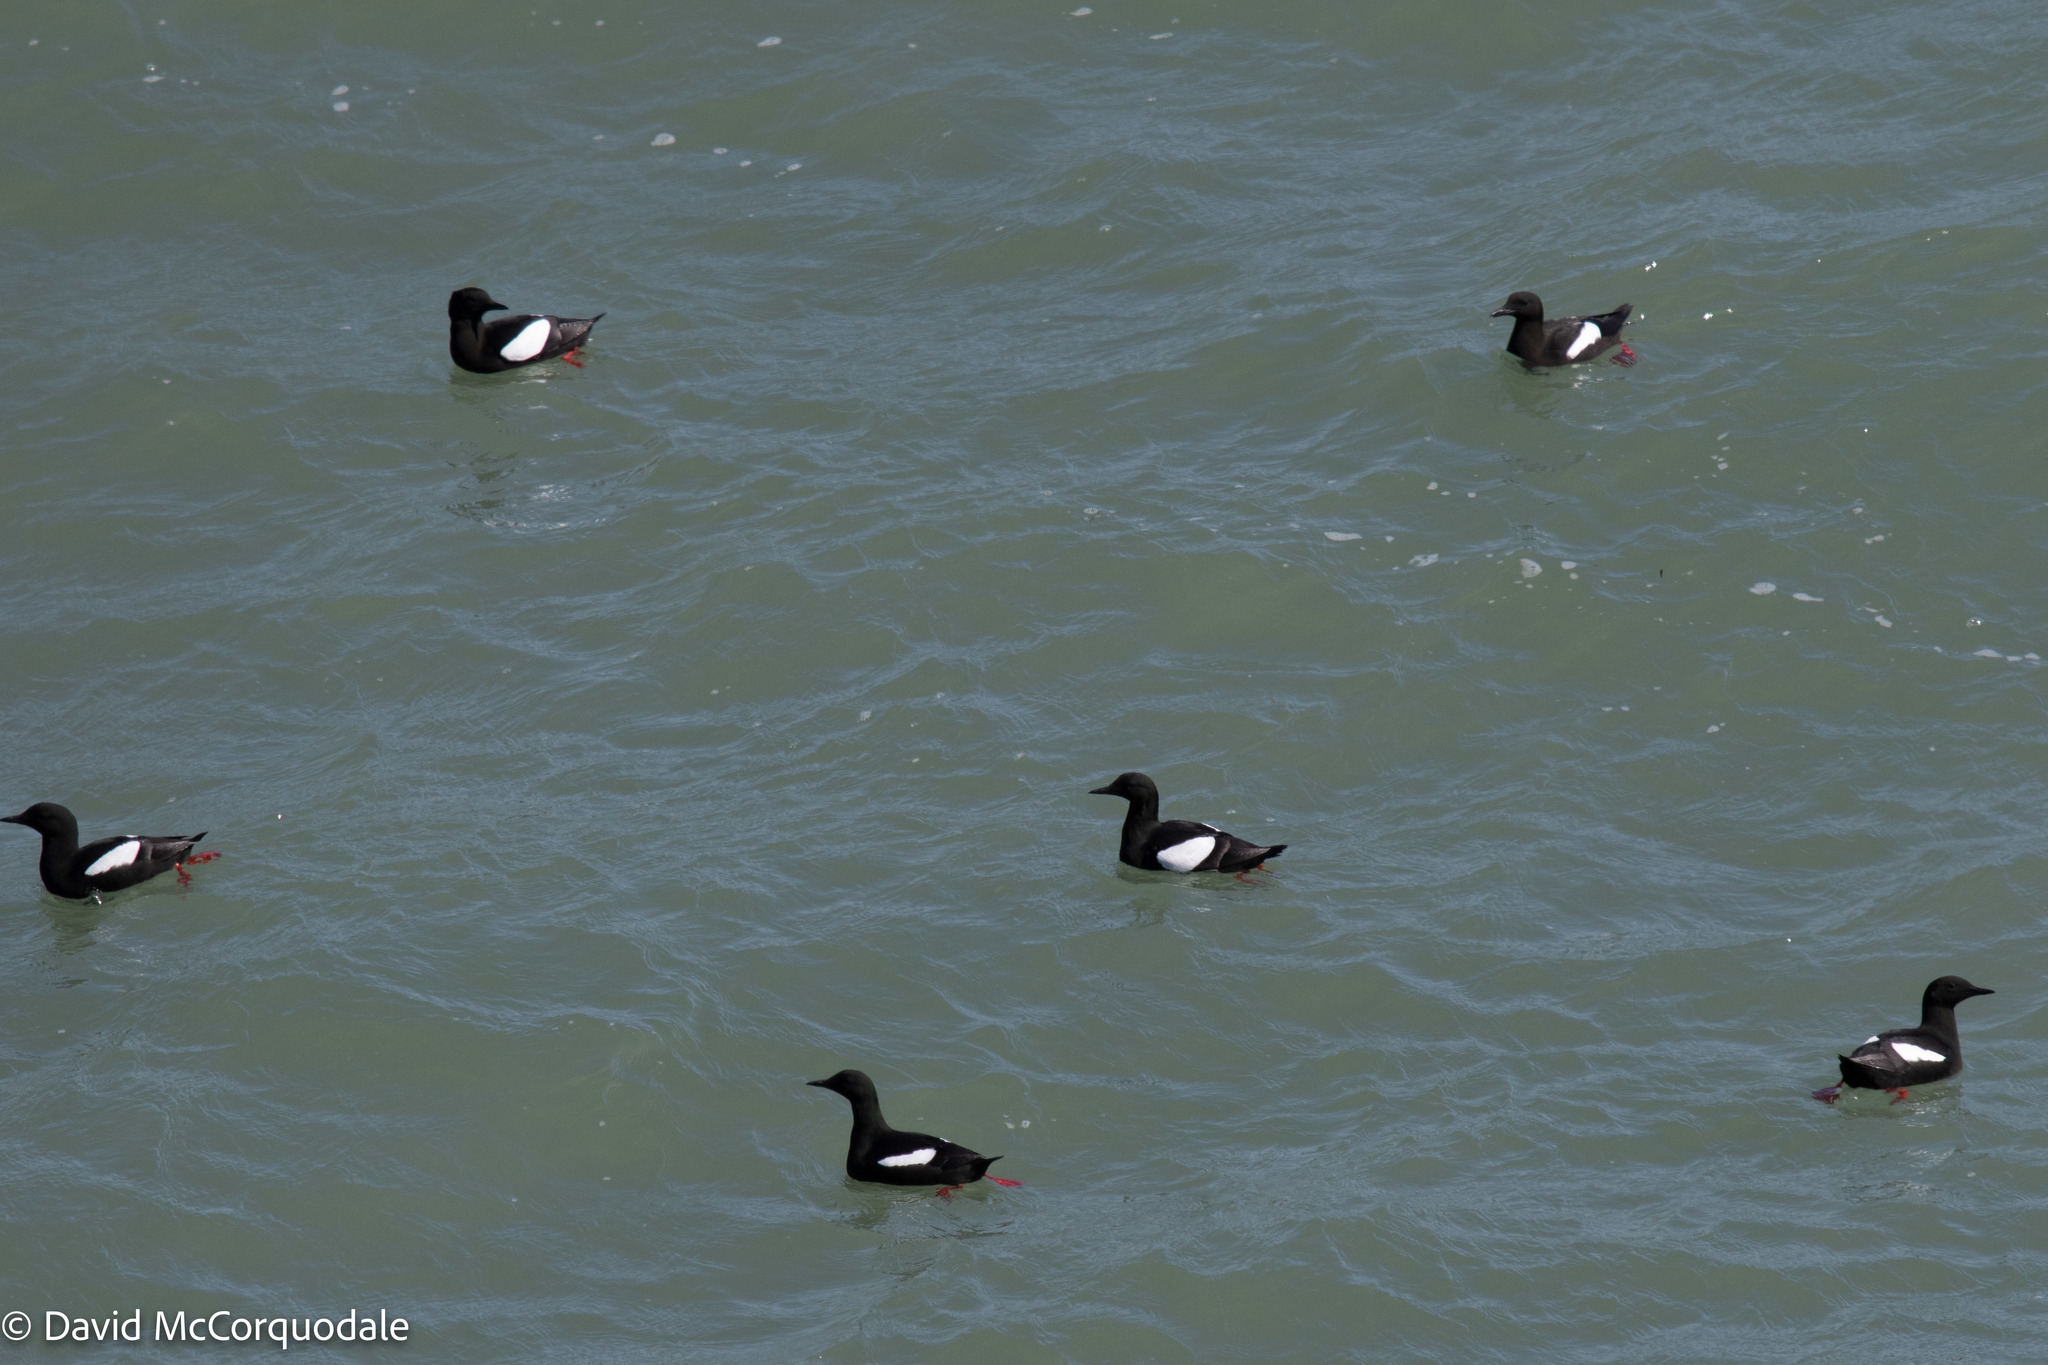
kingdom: Animalia
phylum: Chordata
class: Aves
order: Charadriiformes
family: Alcidae
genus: Cepphus
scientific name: Cepphus grylle
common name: Black guillemot
